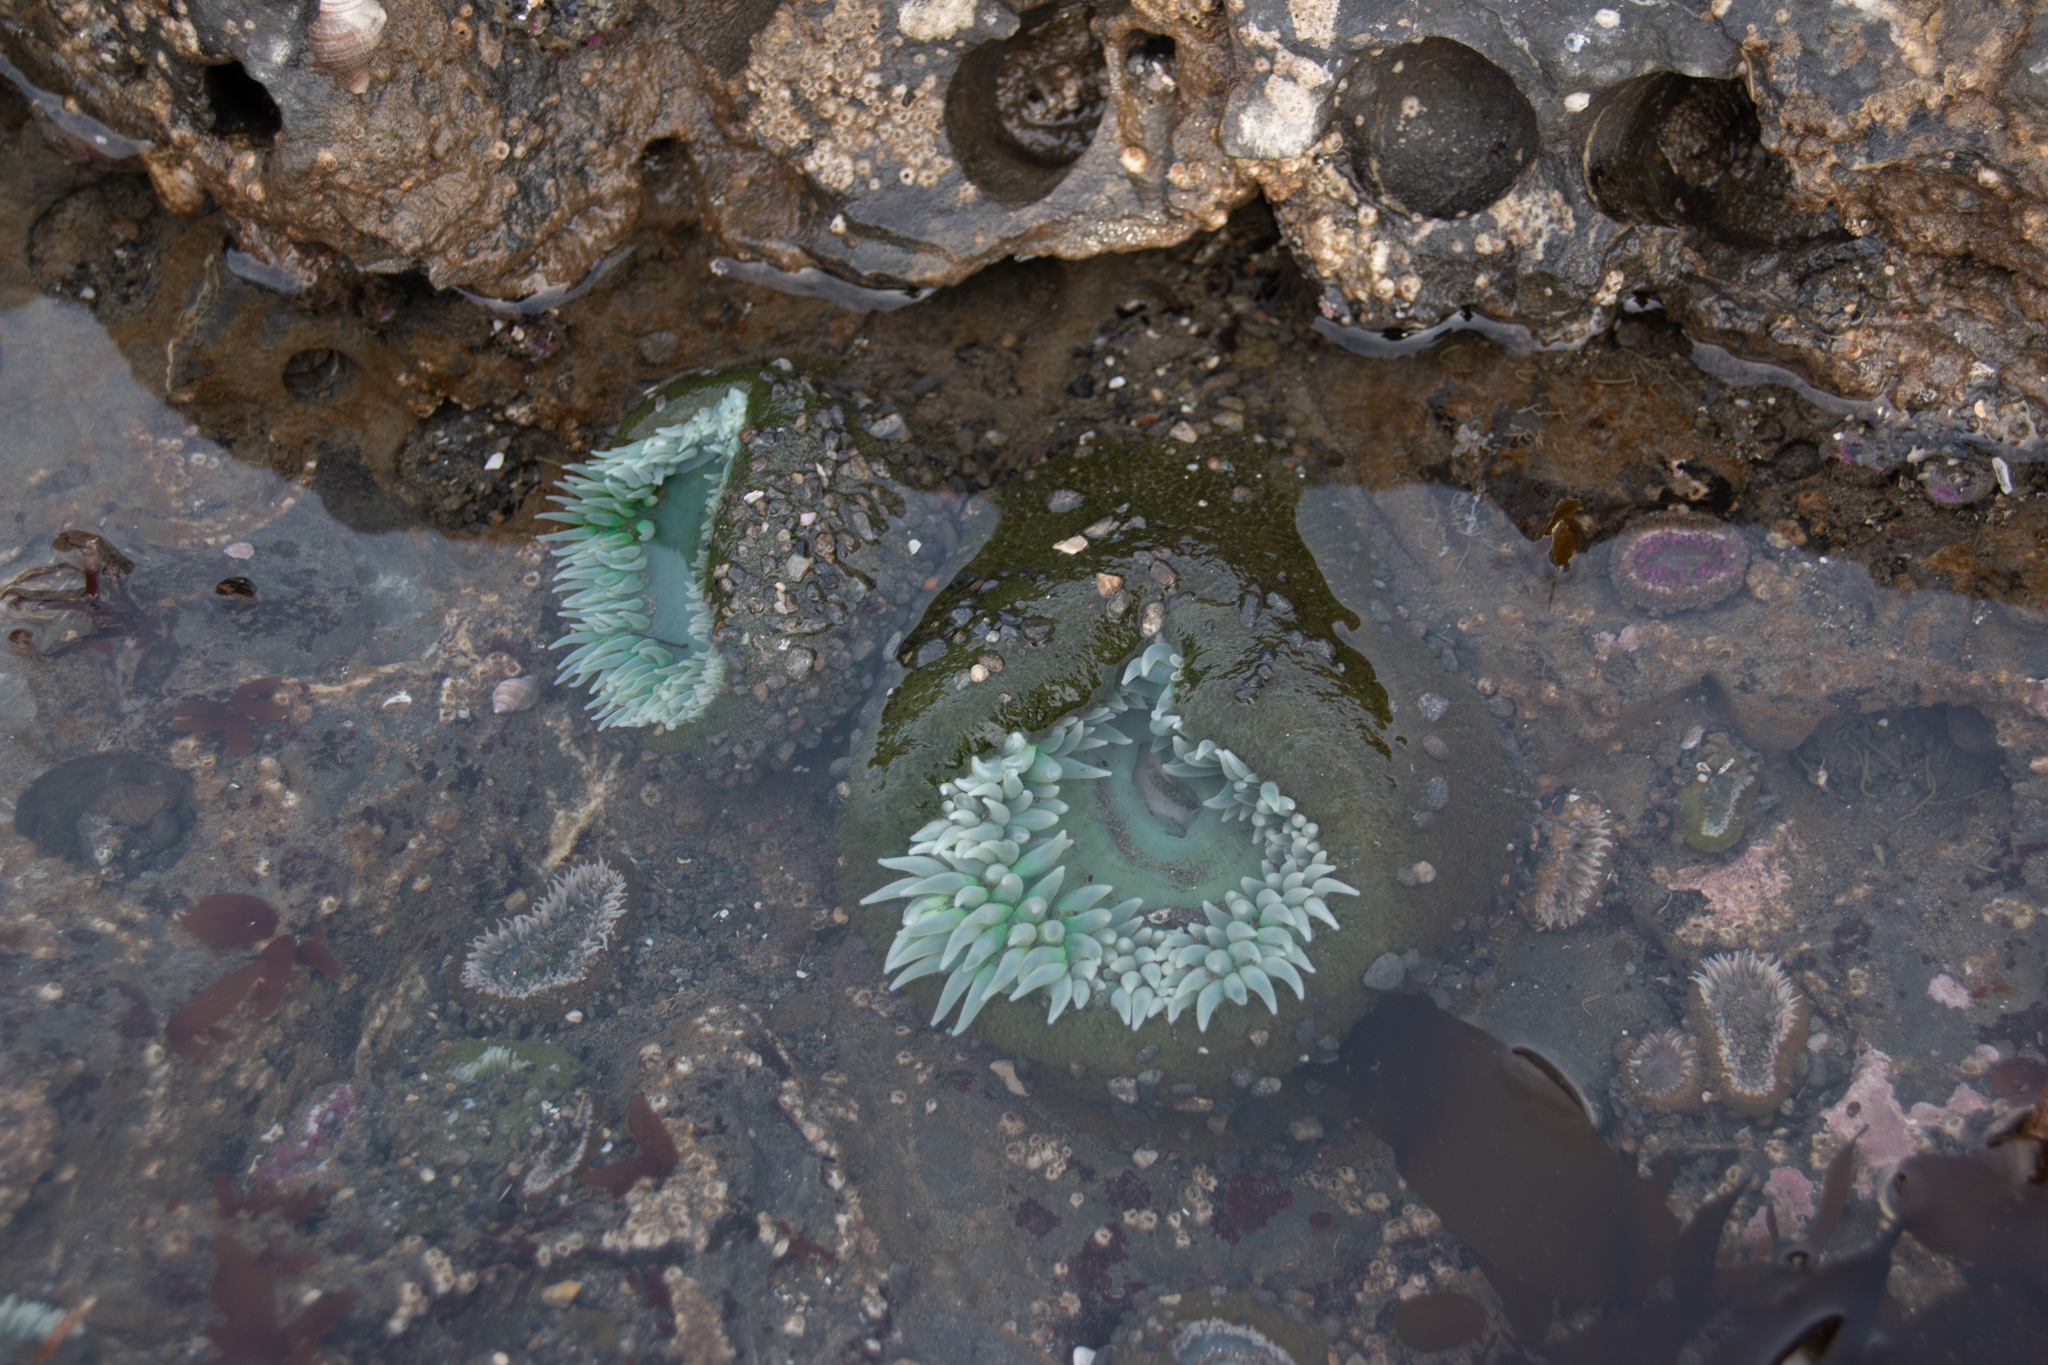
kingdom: Animalia
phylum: Cnidaria
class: Anthozoa
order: Actiniaria
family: Actiniidae
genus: Anthopleura
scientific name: Anthopleura xanthogrammica
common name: Giant green anemone
